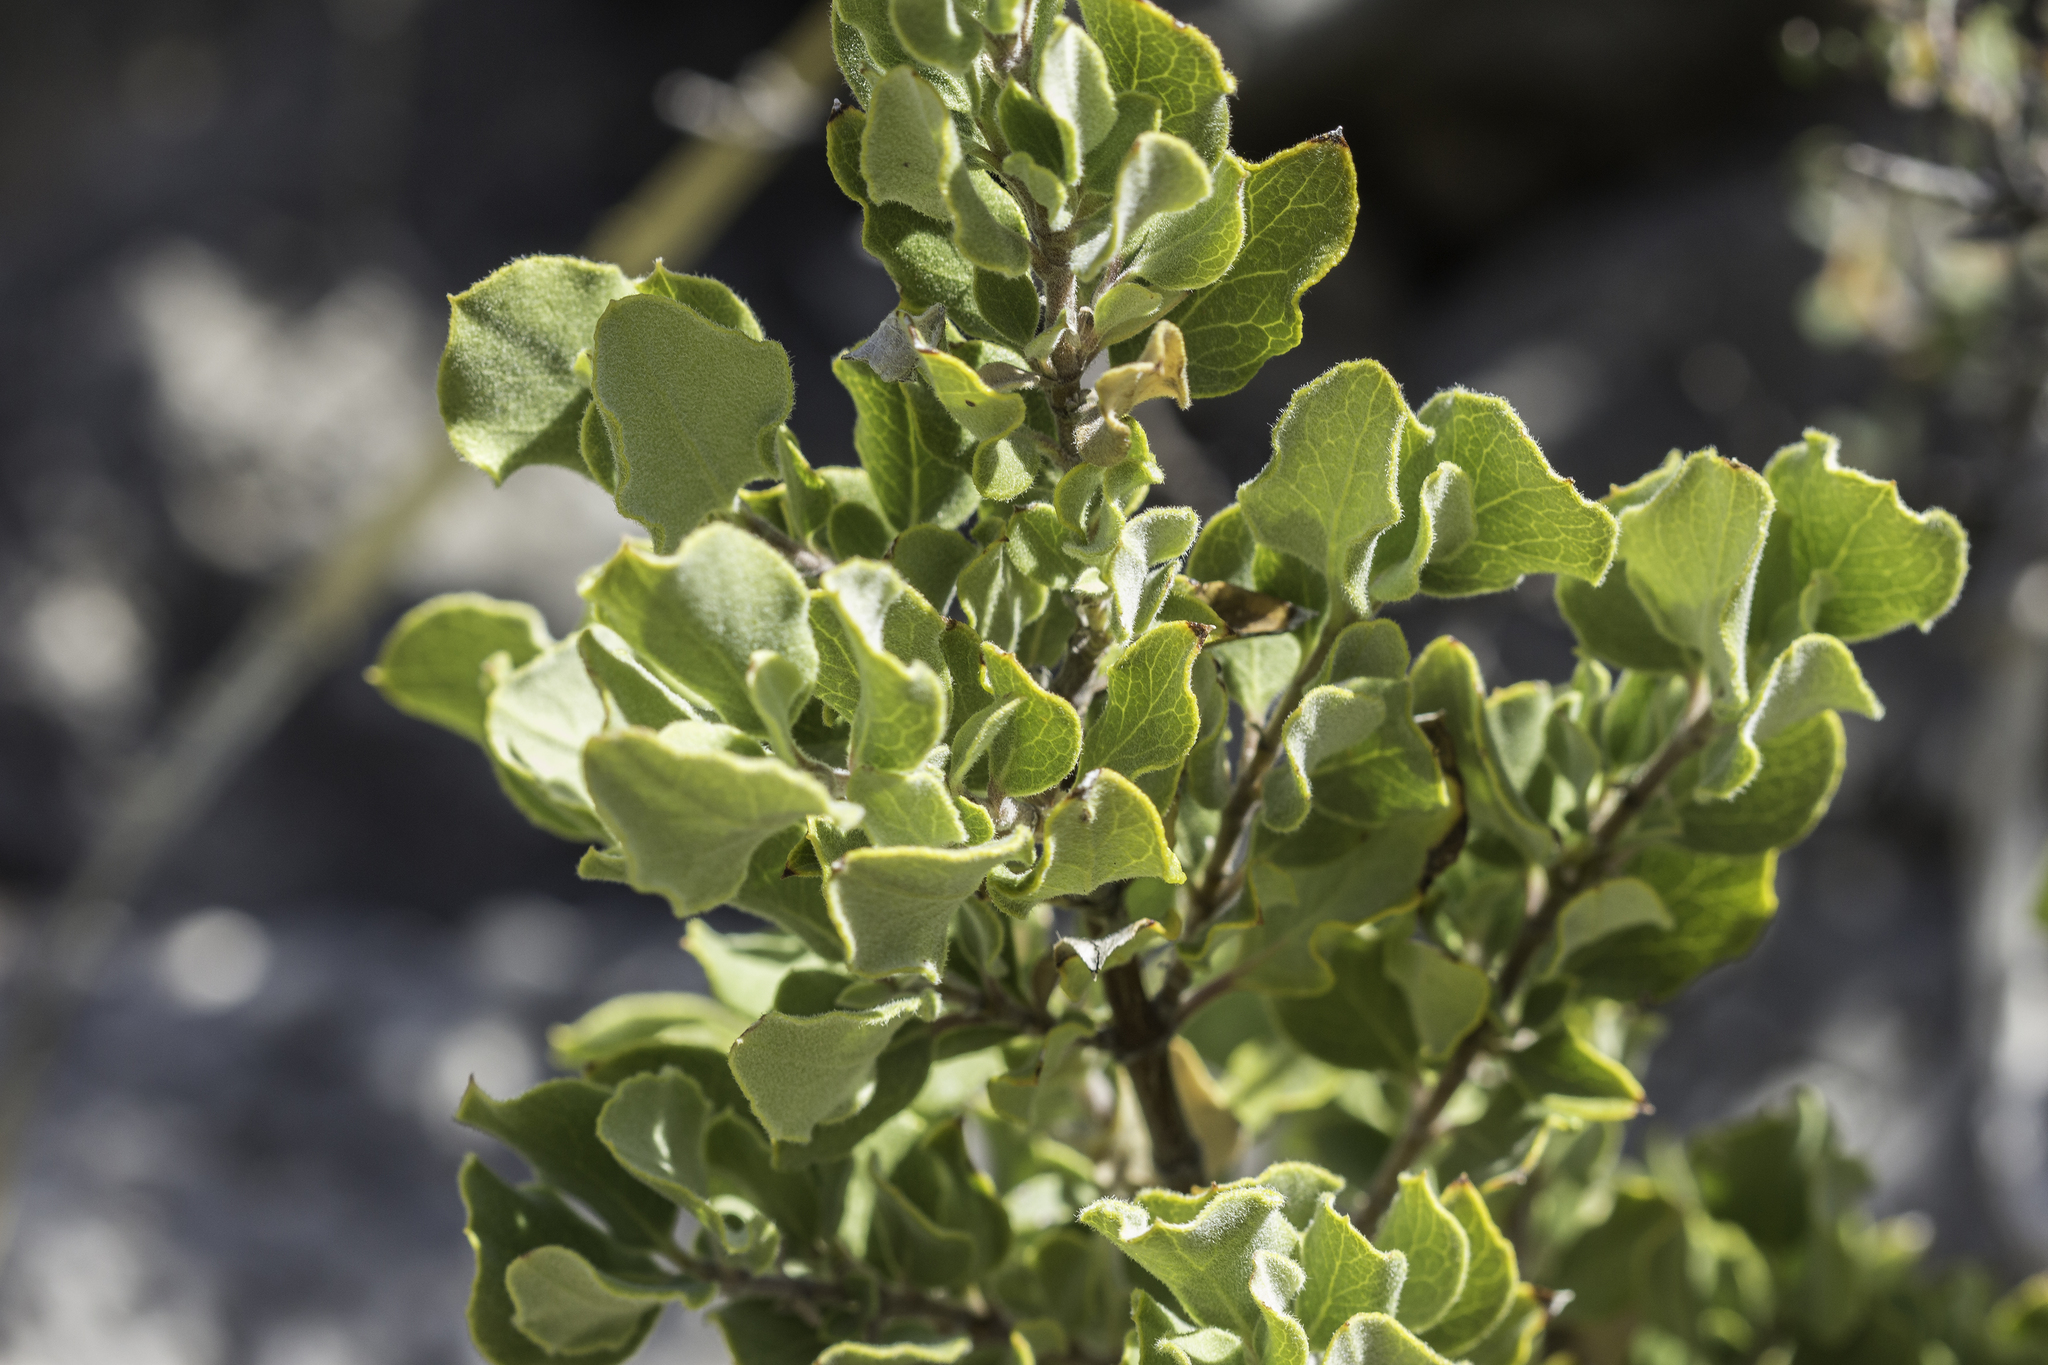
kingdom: Plantae
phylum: Tracheophyta
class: Magnoliopsida
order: Garryales
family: Garryaceae
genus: Garrya
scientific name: Garrya goldmanii
